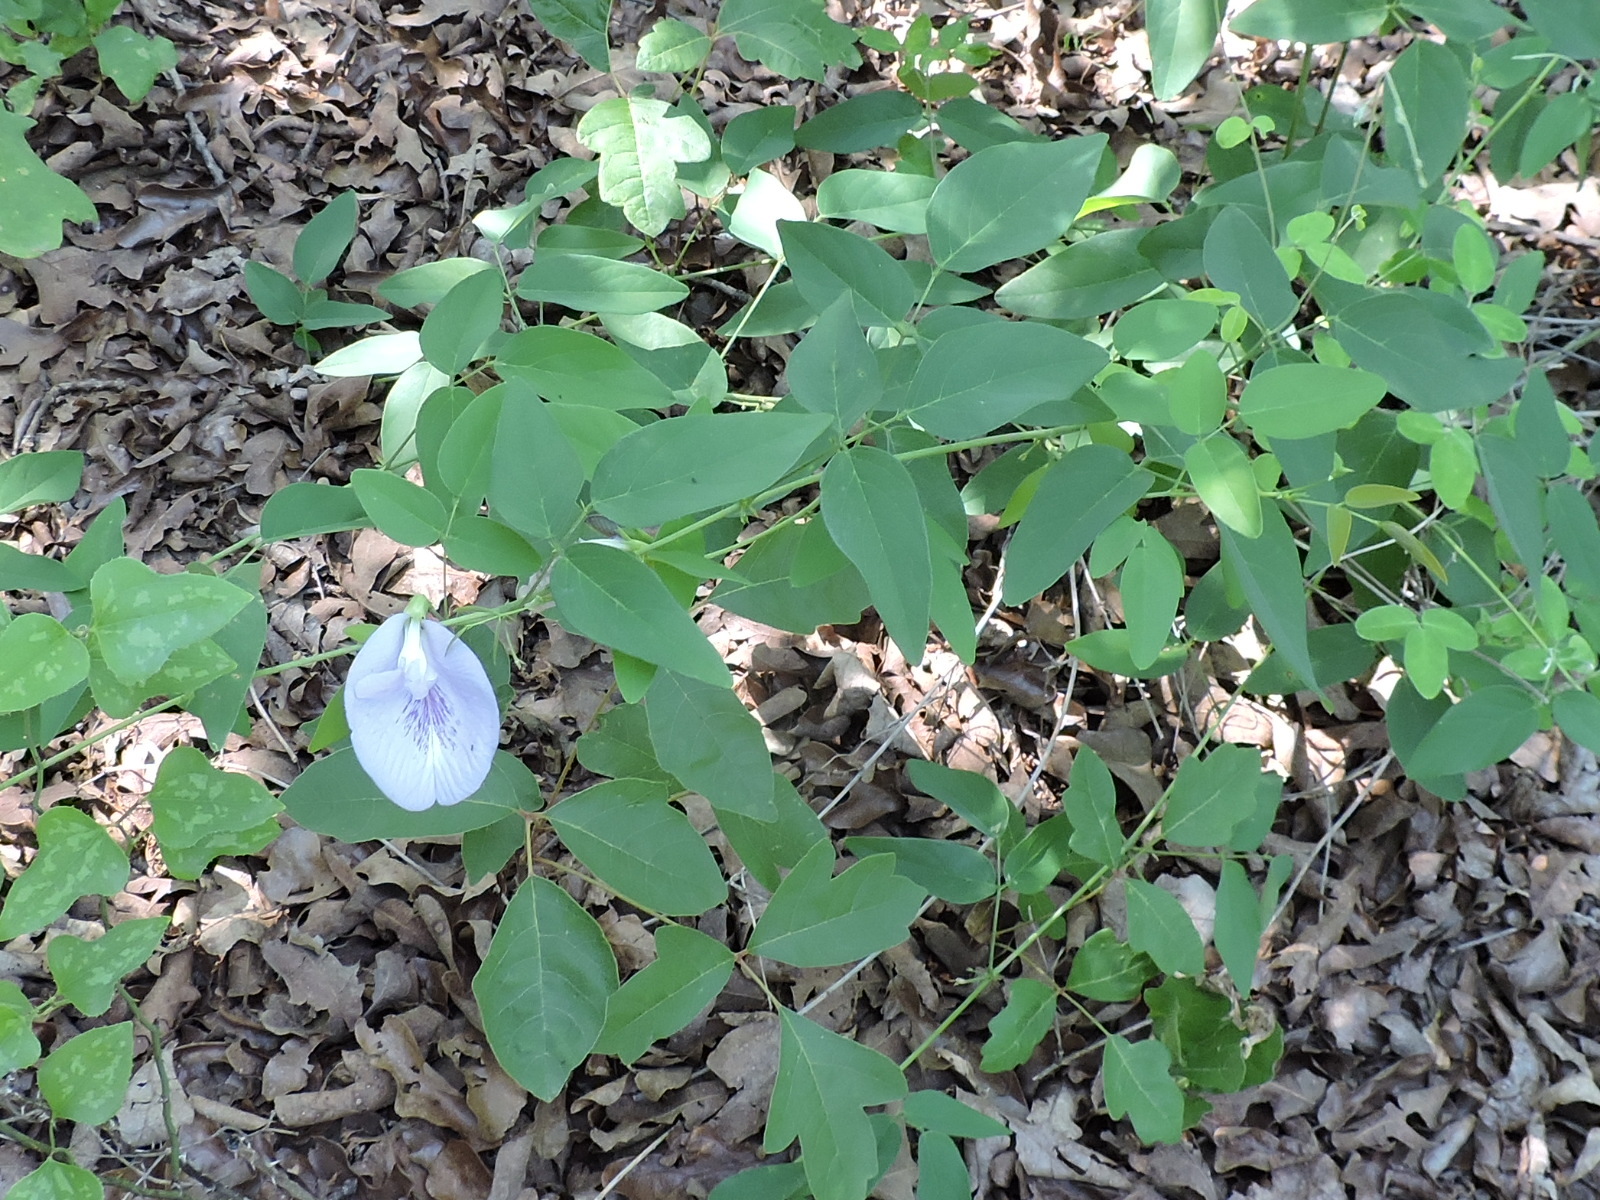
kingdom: Plantae
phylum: Tracheophyta
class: Magnoliopsida
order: Fabales
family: Fabaceae
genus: Clitoria
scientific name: Clitoria mariana
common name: Butterfly-pea
